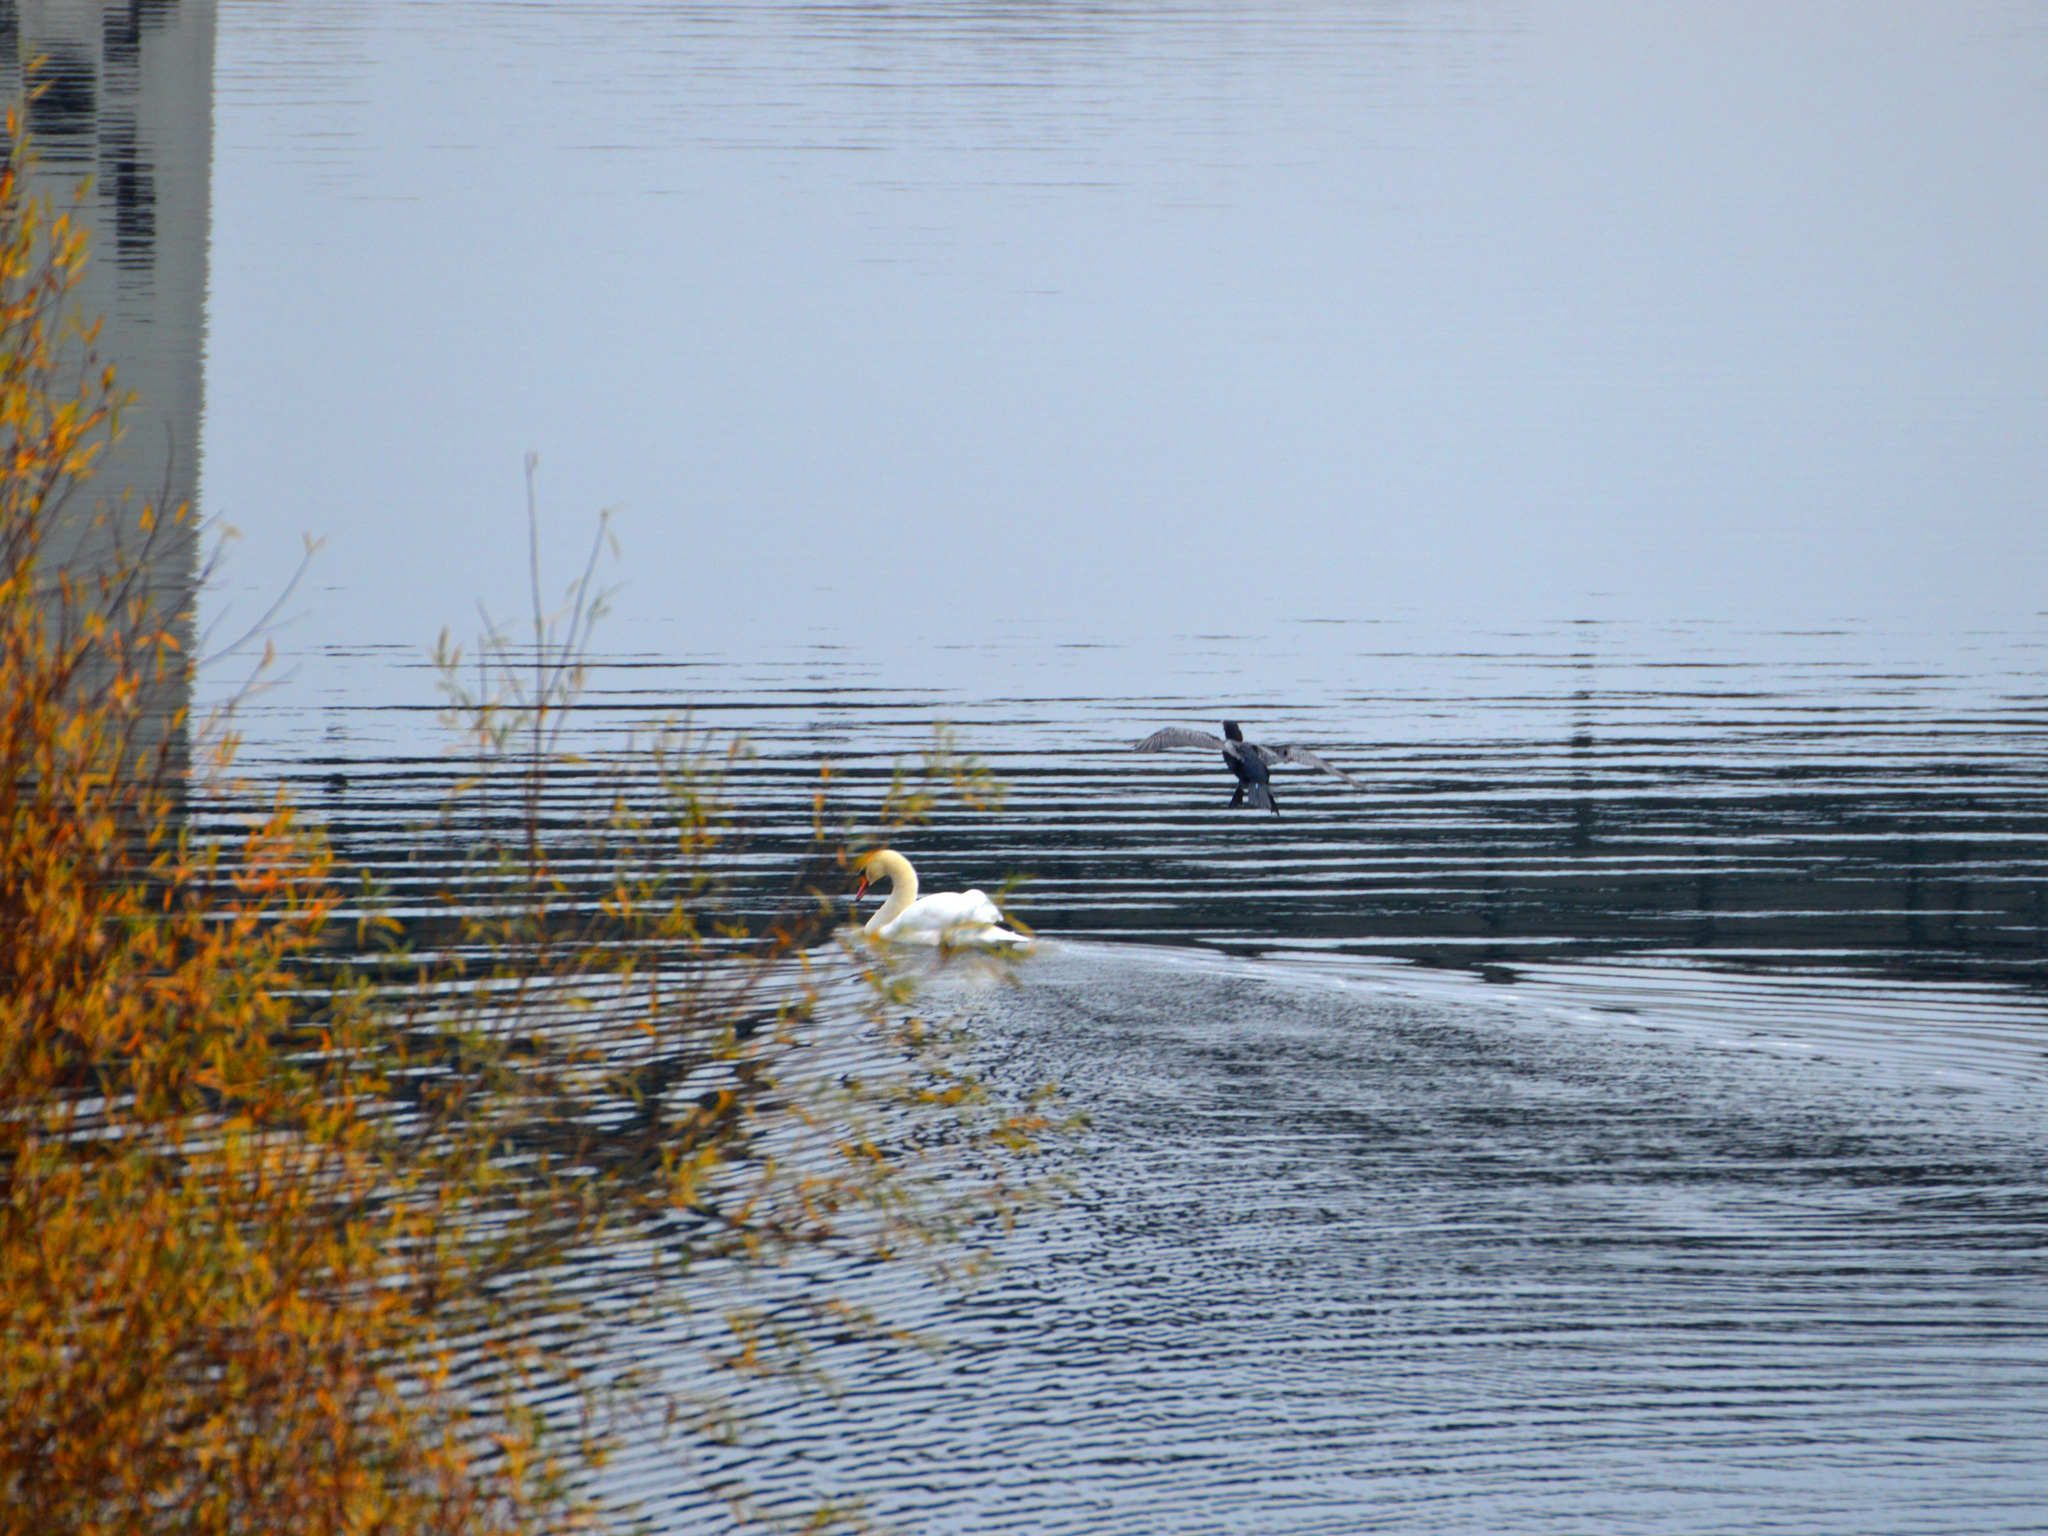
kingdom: Animalia
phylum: Chordata
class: Aves
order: Anseriformes
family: Anatidae
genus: Cygnus
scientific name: Cygnus olor
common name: Mute swan
